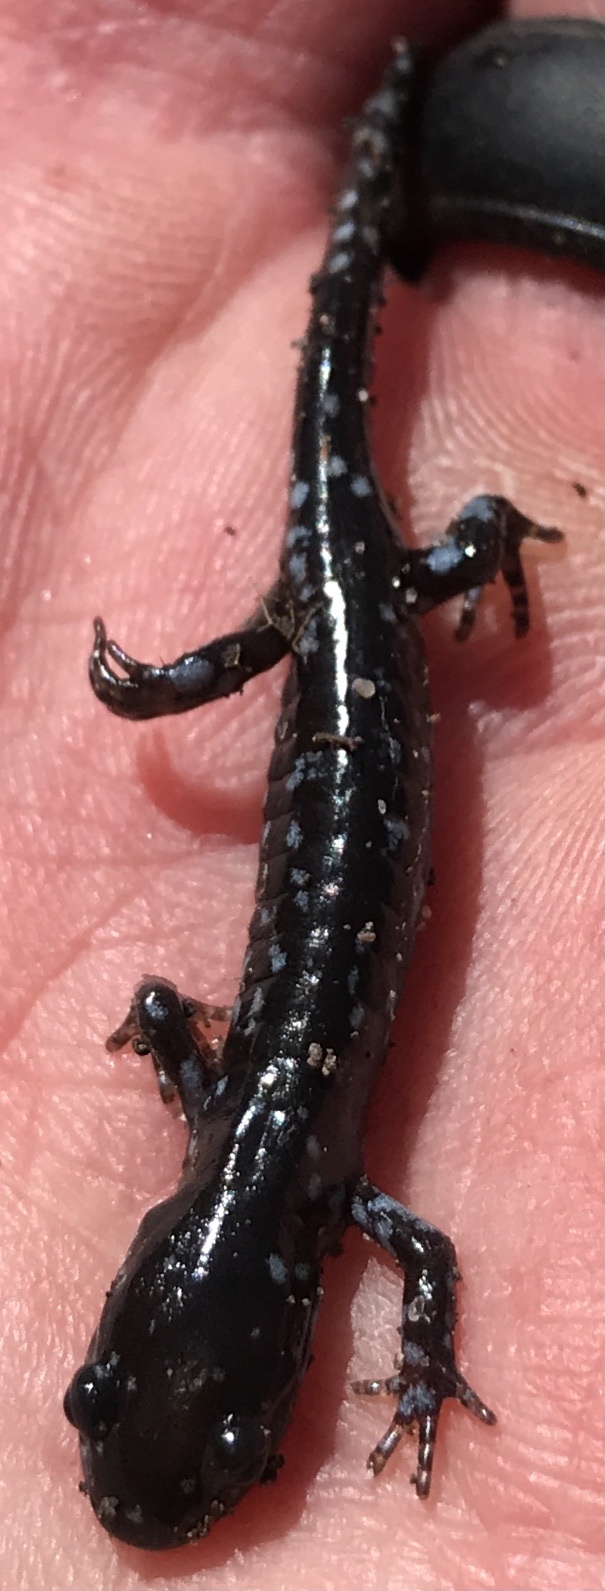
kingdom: Animalia
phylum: Chordata
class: Amphibia
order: Caudata
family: Ambystomatidae
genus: Ambystoma
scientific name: Ambystoma laterale
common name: Blue-spotted salamander
